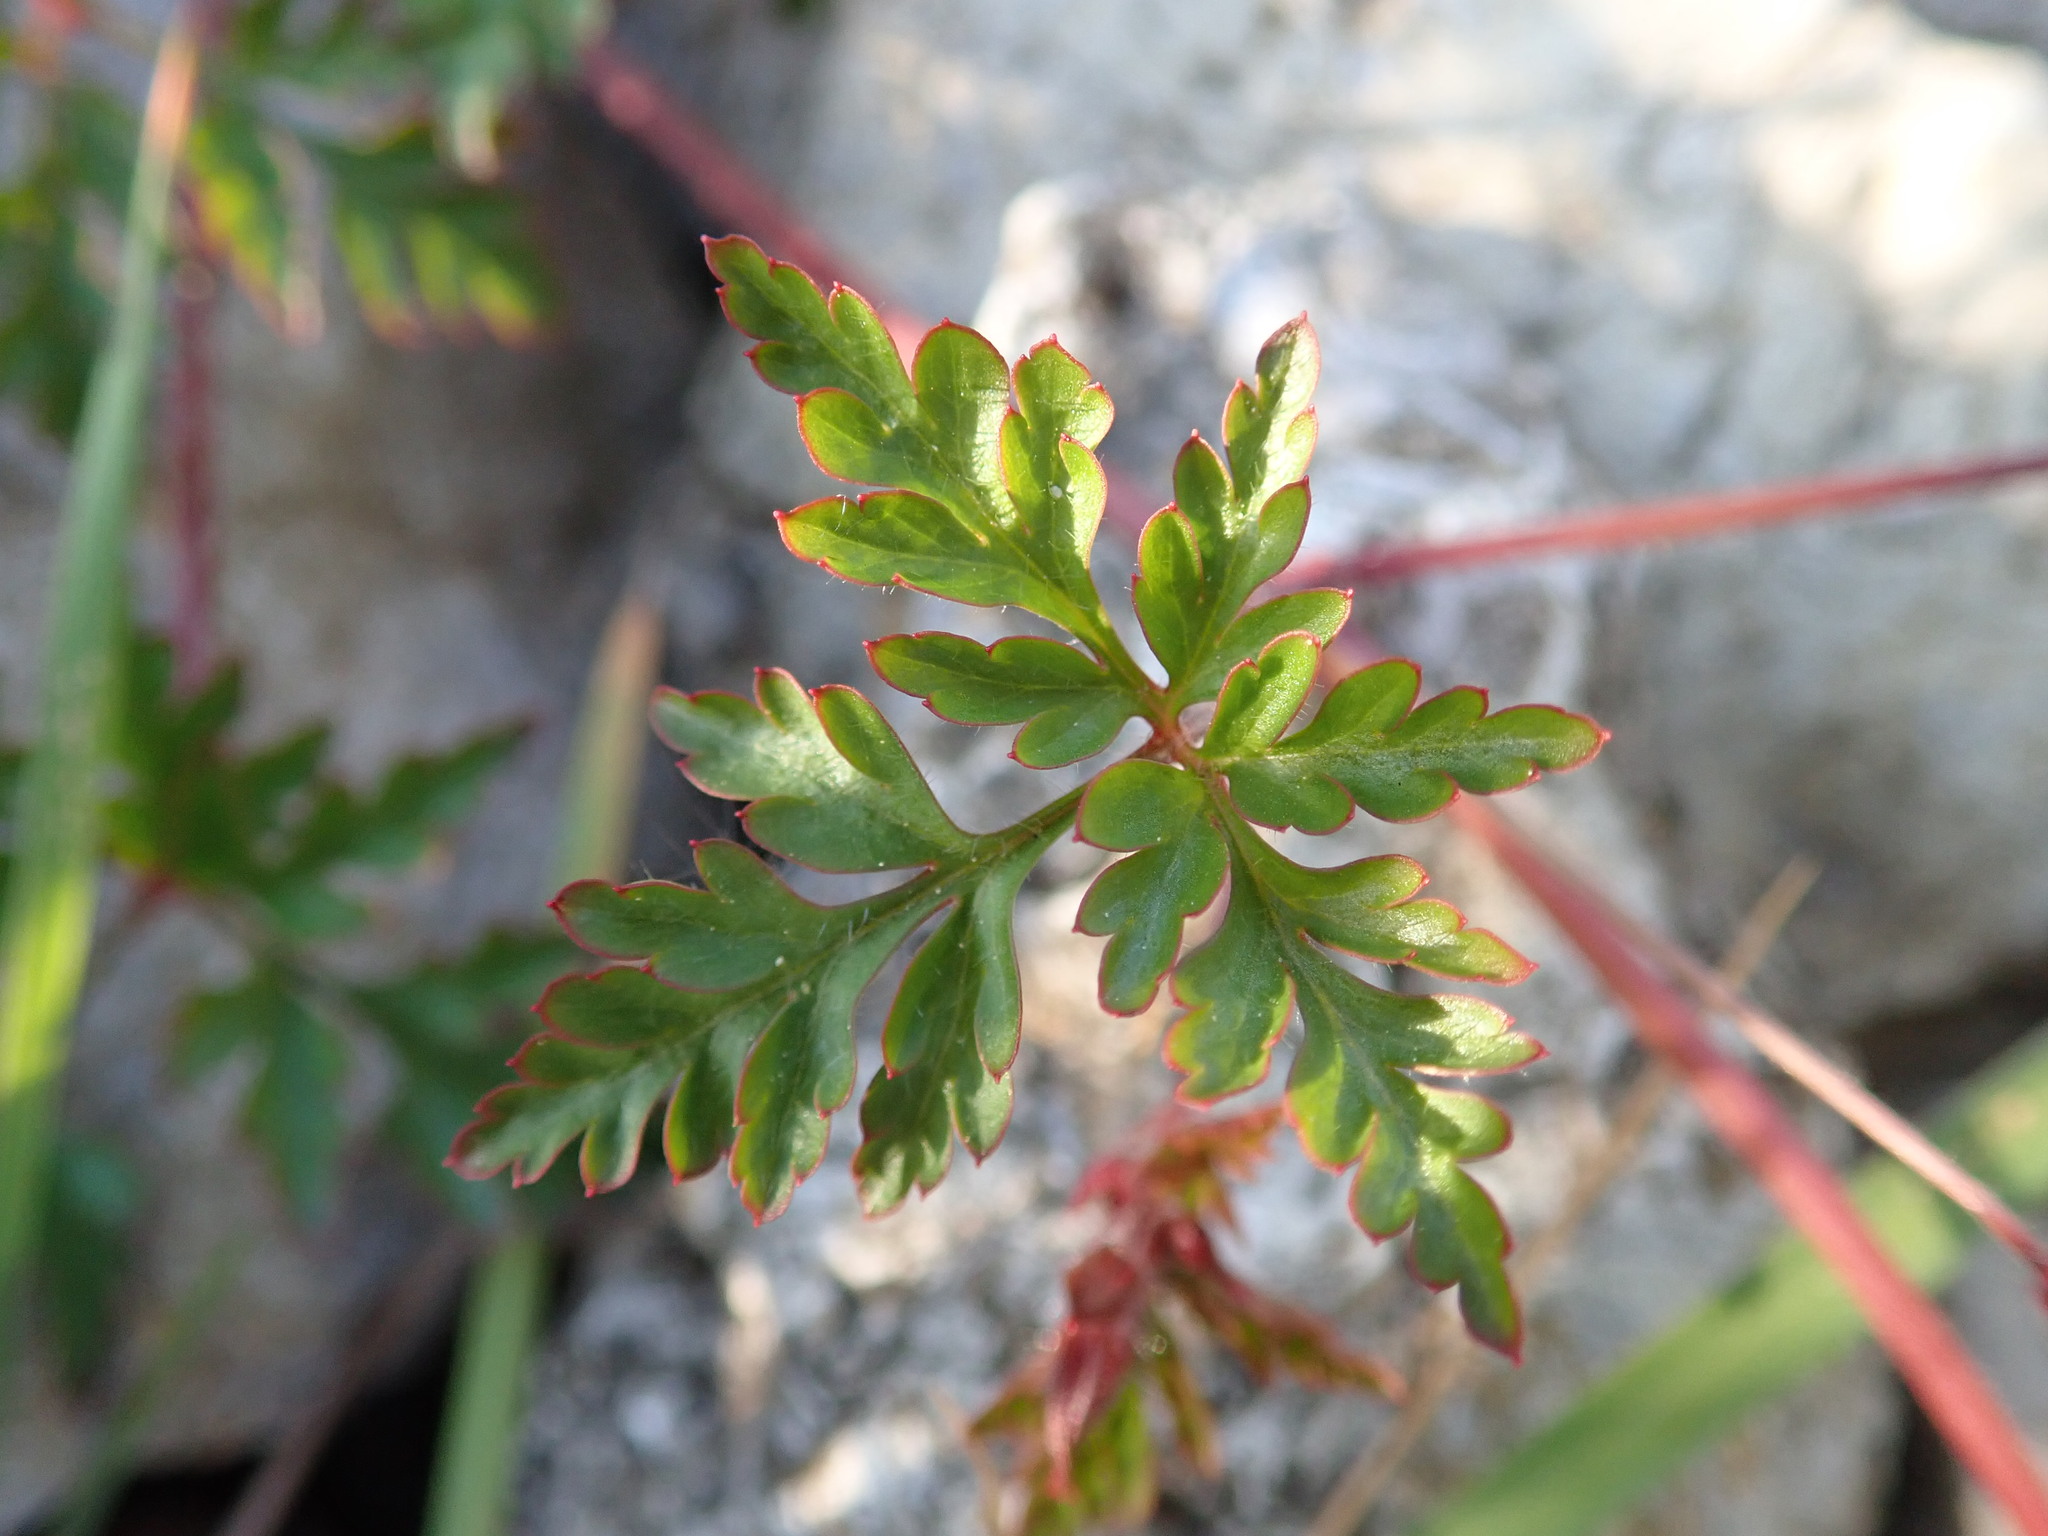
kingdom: Plantae
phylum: Tracheophyta
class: Magnoliopsida
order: Geraniales
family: Geraniaceae
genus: Geranium
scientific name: Geranium robertianum
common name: Herb-robert
